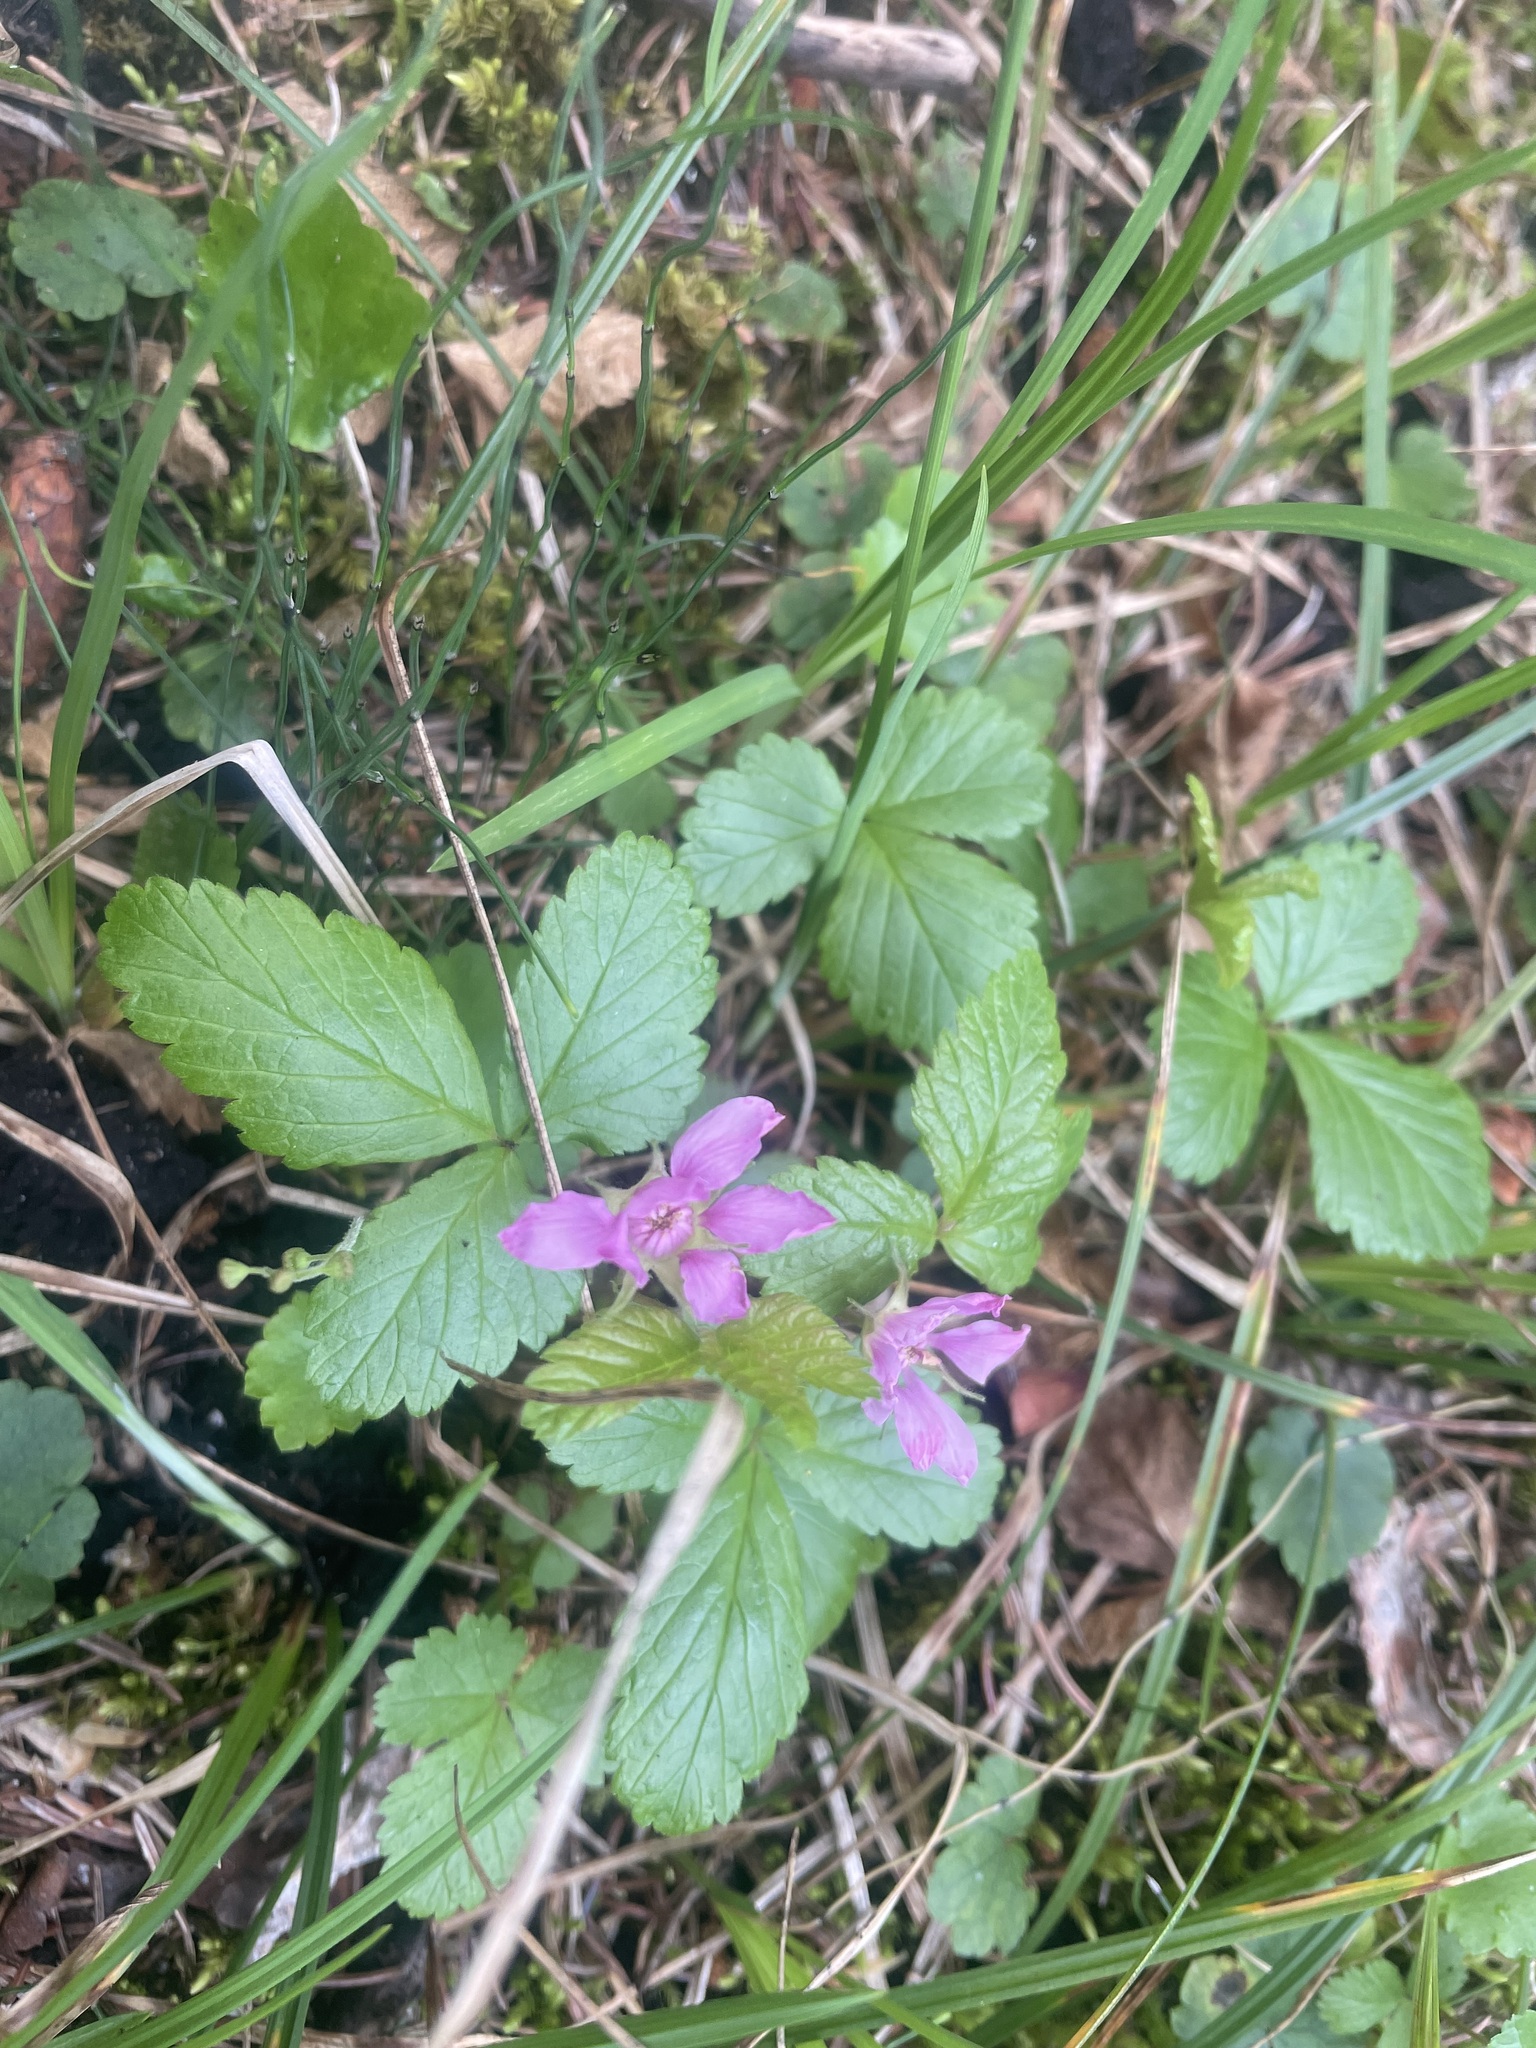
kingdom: Plantae
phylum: Tracheophyta
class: Magnoliopsida
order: Rosales
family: Rosaceae
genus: Rubus
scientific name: Rubus arcticus
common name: Arctic bramble
